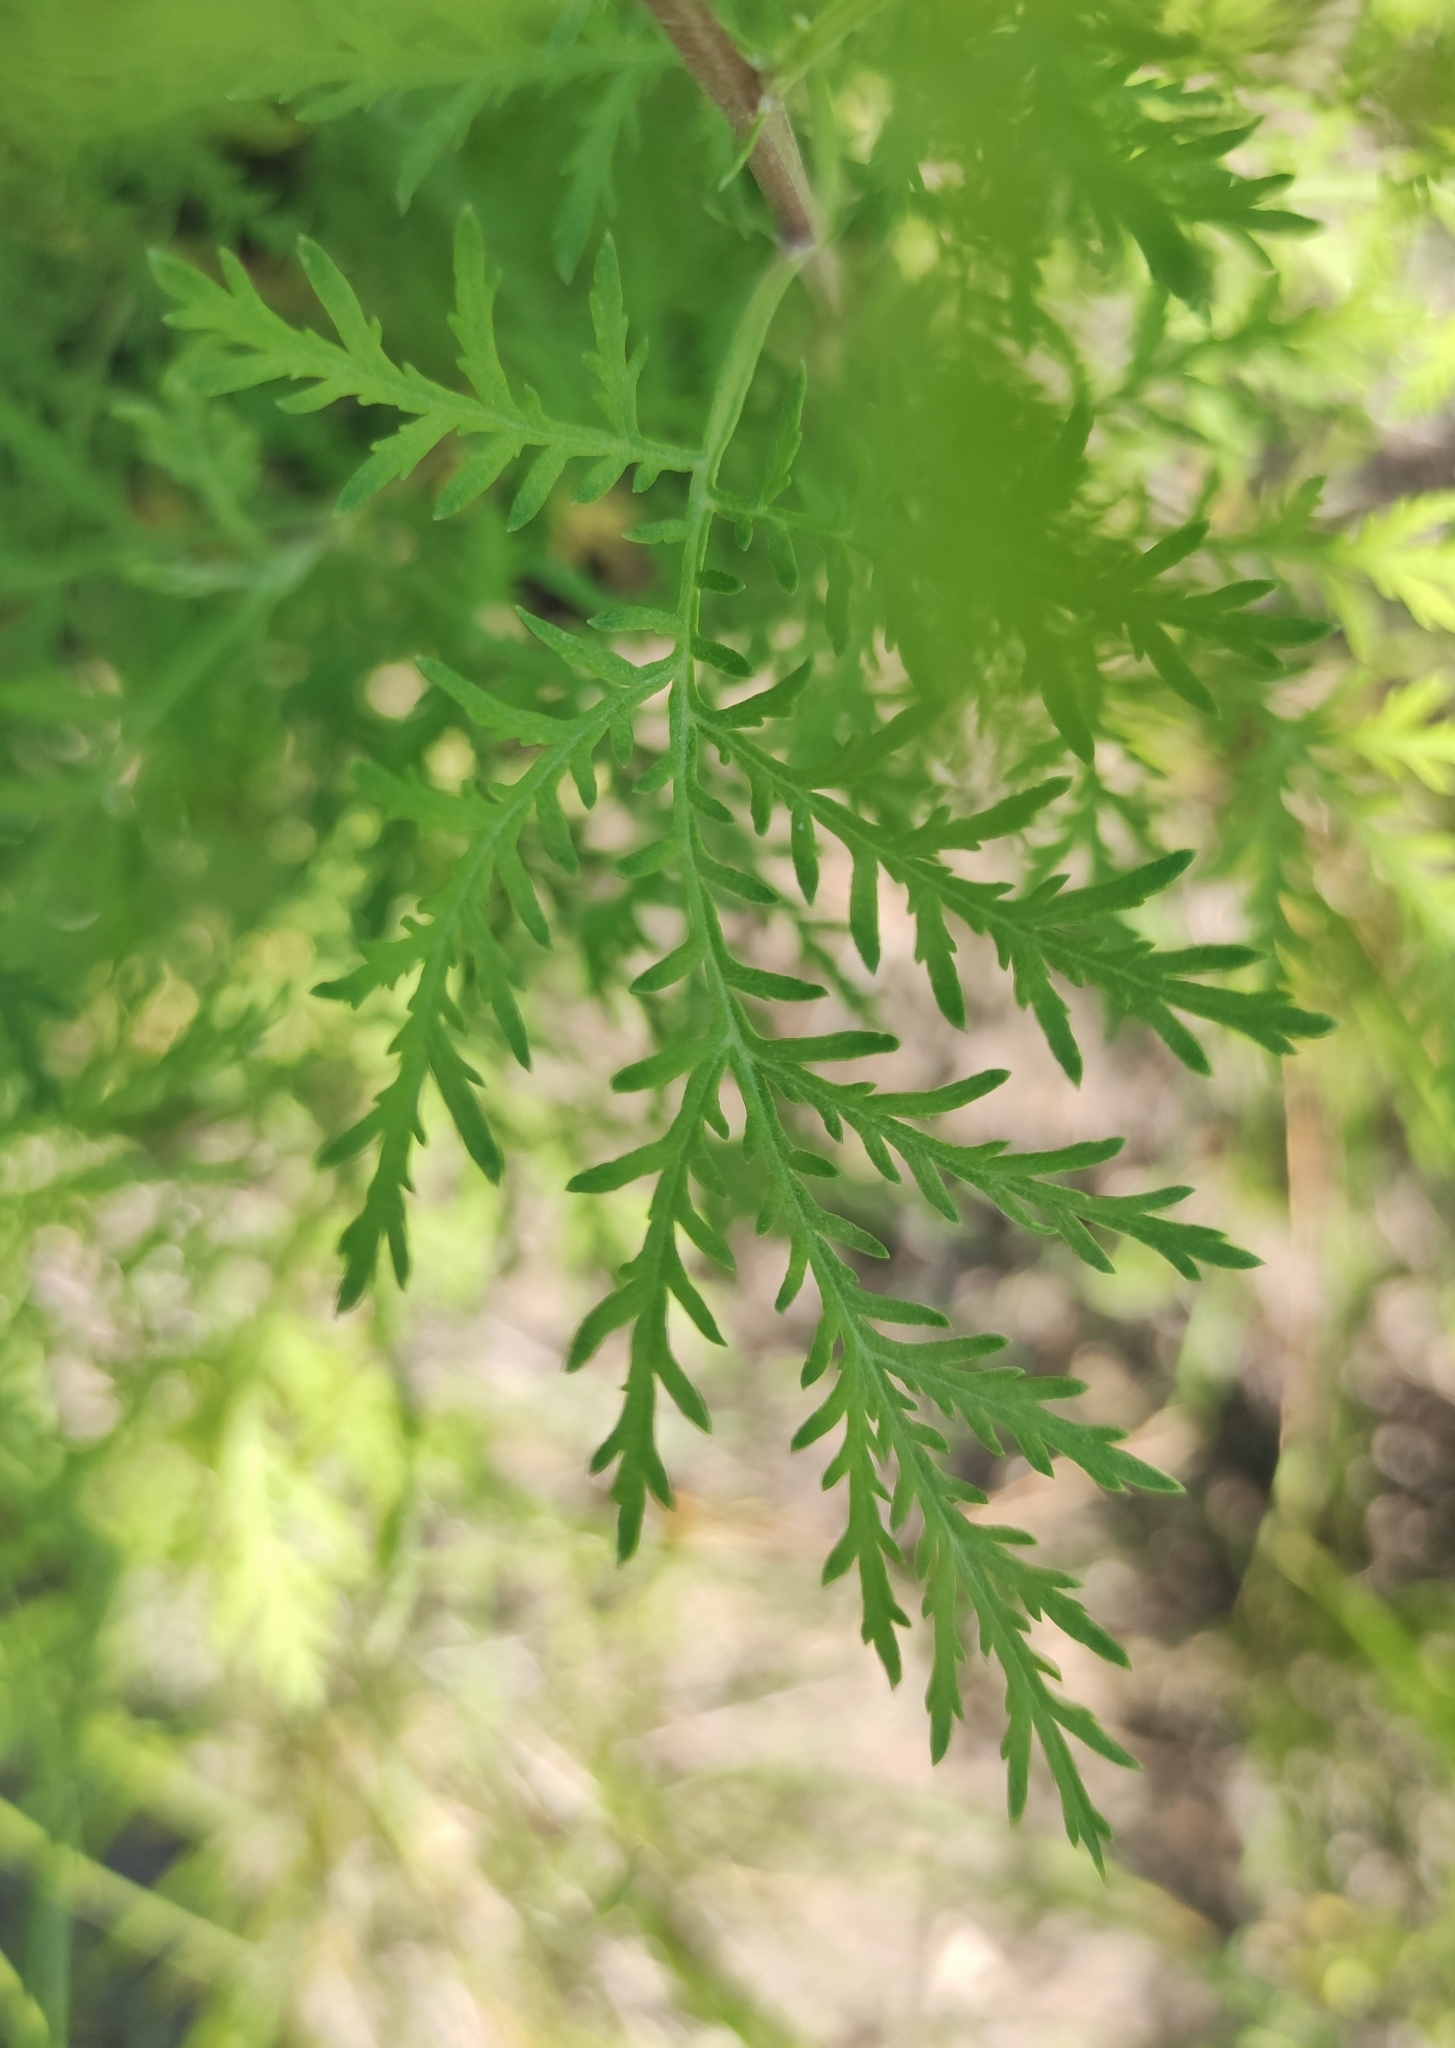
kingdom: Plantae
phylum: Tracheophyta
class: Magnoliopsida
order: Asterales
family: Asteraceae
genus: Artemisia
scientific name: Artemisia gmelinii
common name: Gmelin's wormwood
